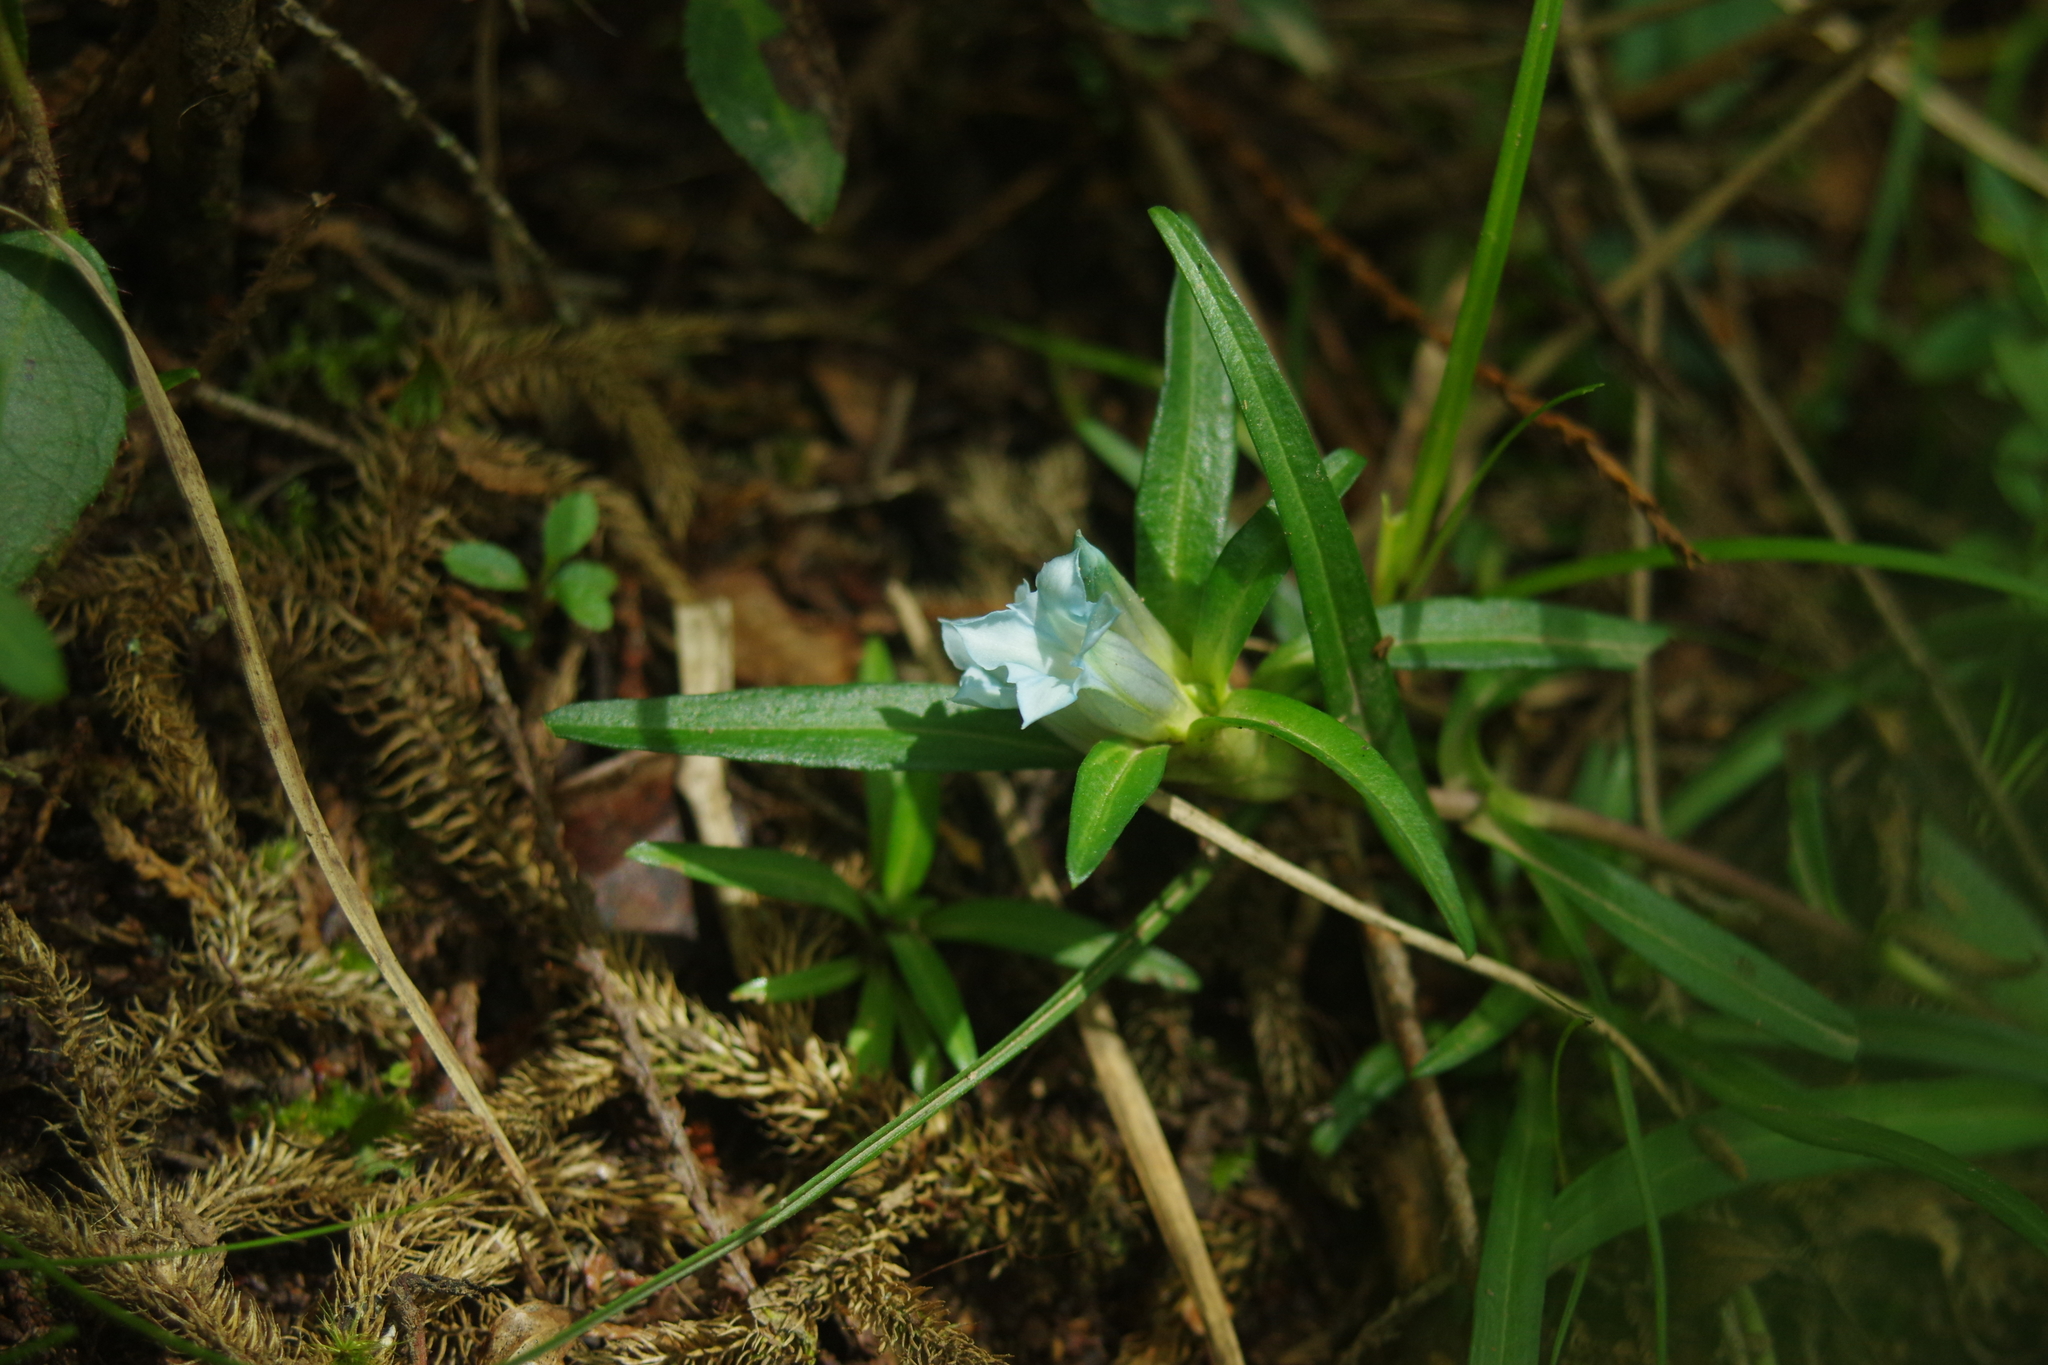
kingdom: Plantae
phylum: Tracheophyta
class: Magnoliopsida
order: Gentianales
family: Gentianaceae
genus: Gentiana
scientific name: Gentiana davidii
